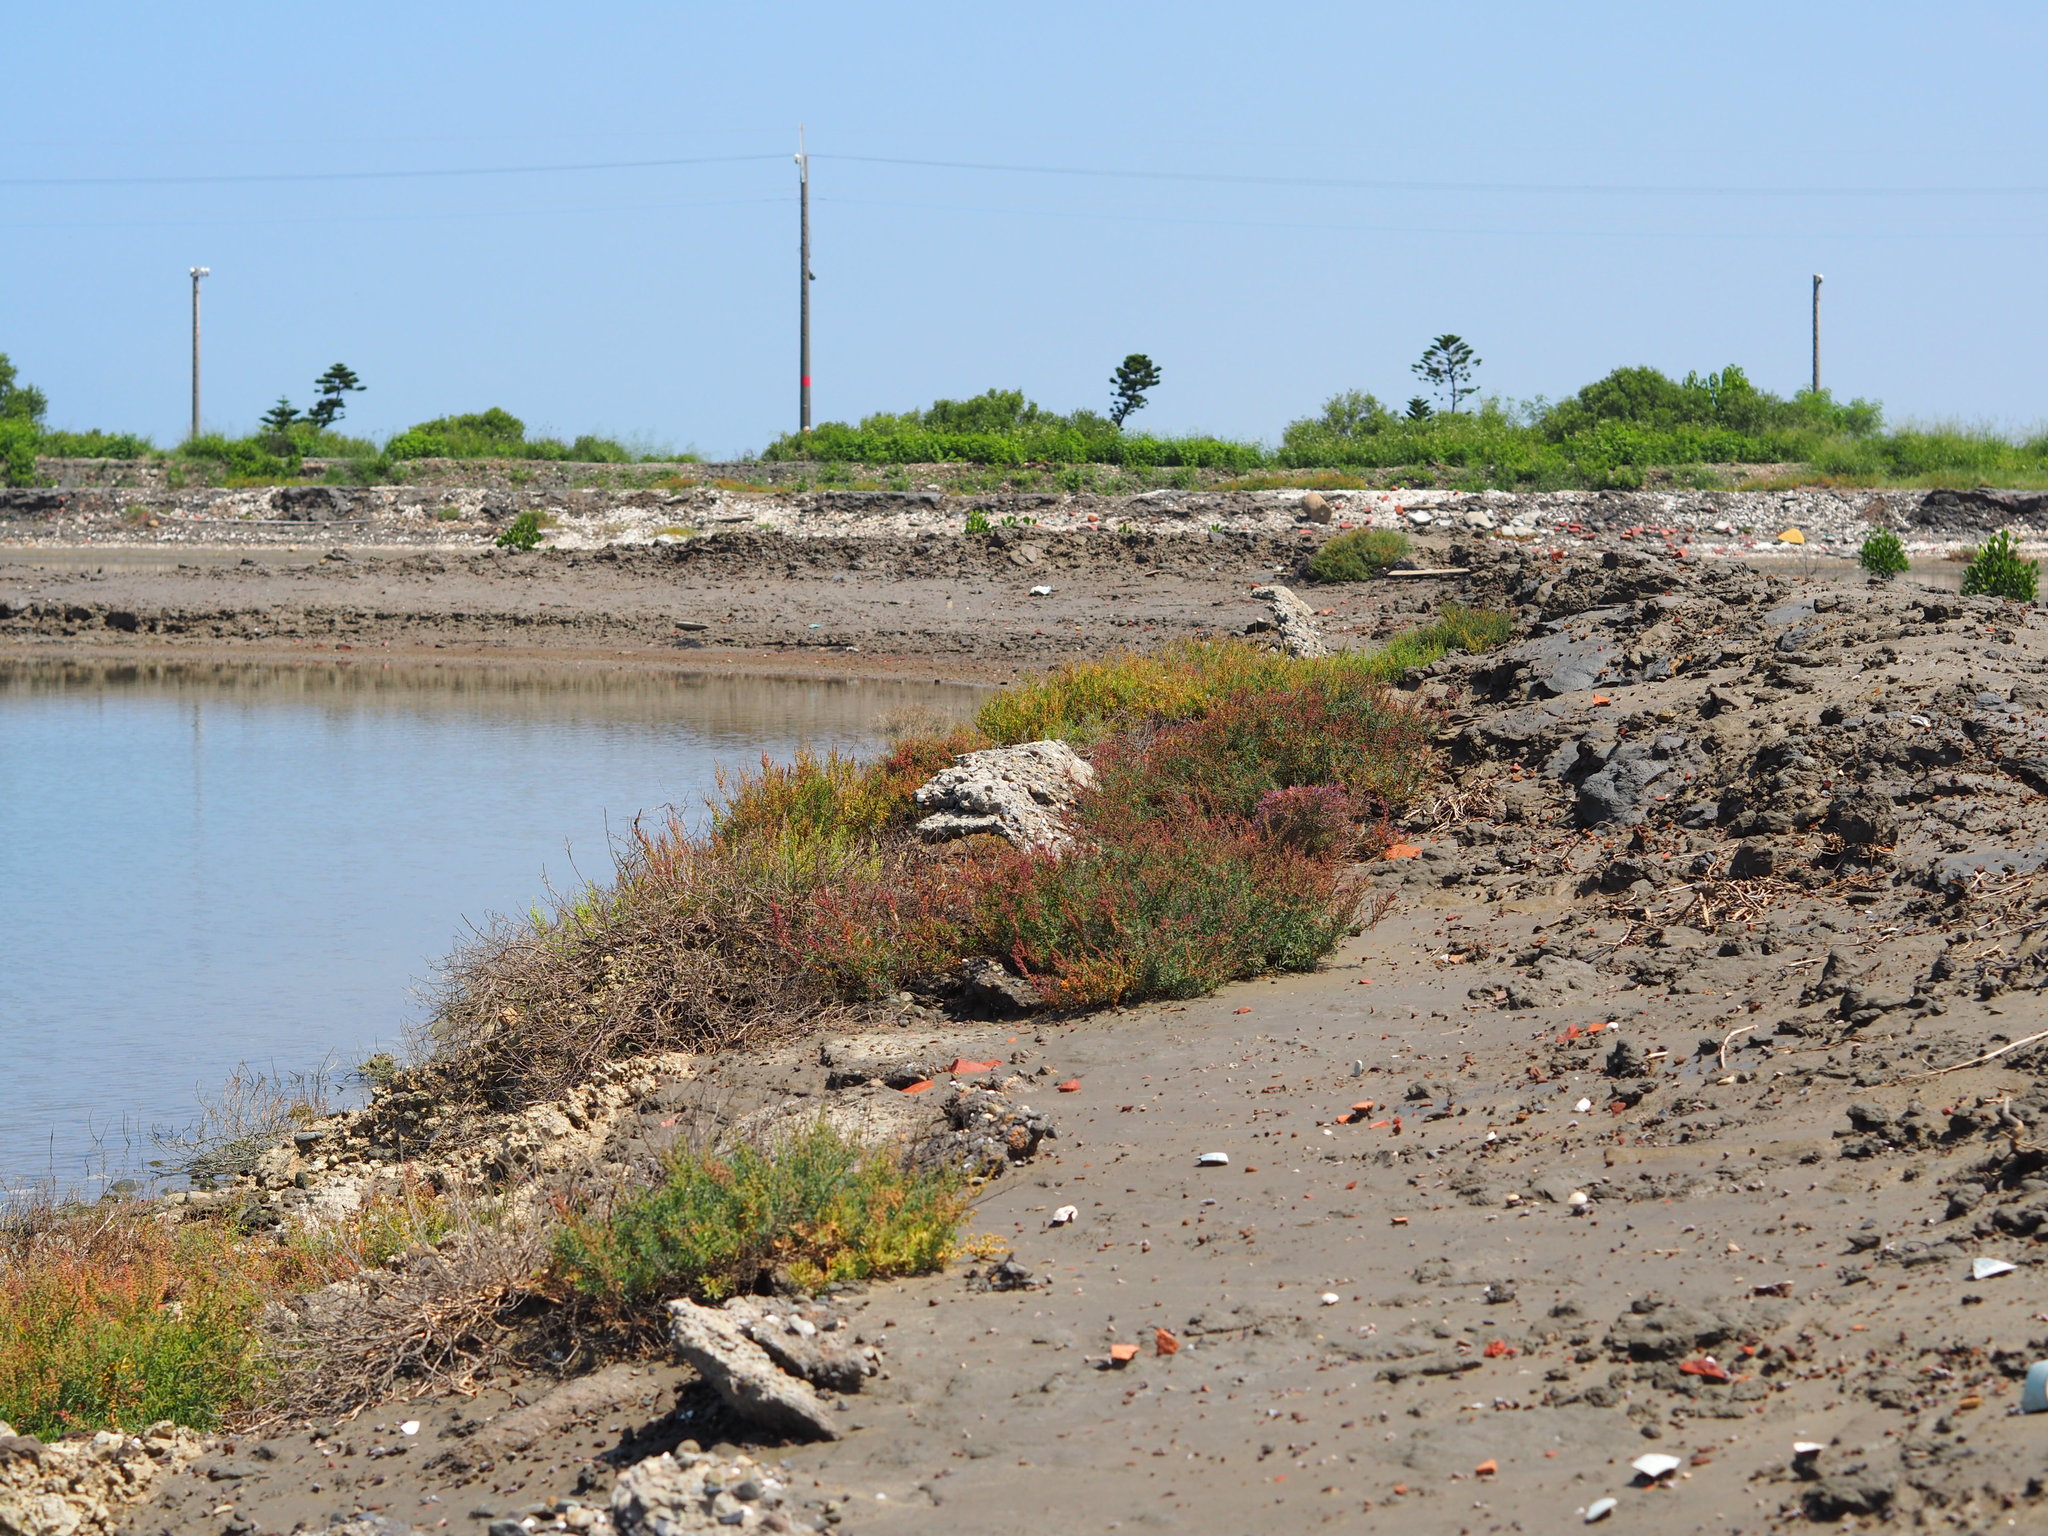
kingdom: Plantae
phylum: Tracheophyta
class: Magnoliopsida
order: Caryophyllales
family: Amaranthaceae
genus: Suaeda
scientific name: Suaeda maritima
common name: Annual sea-blite
